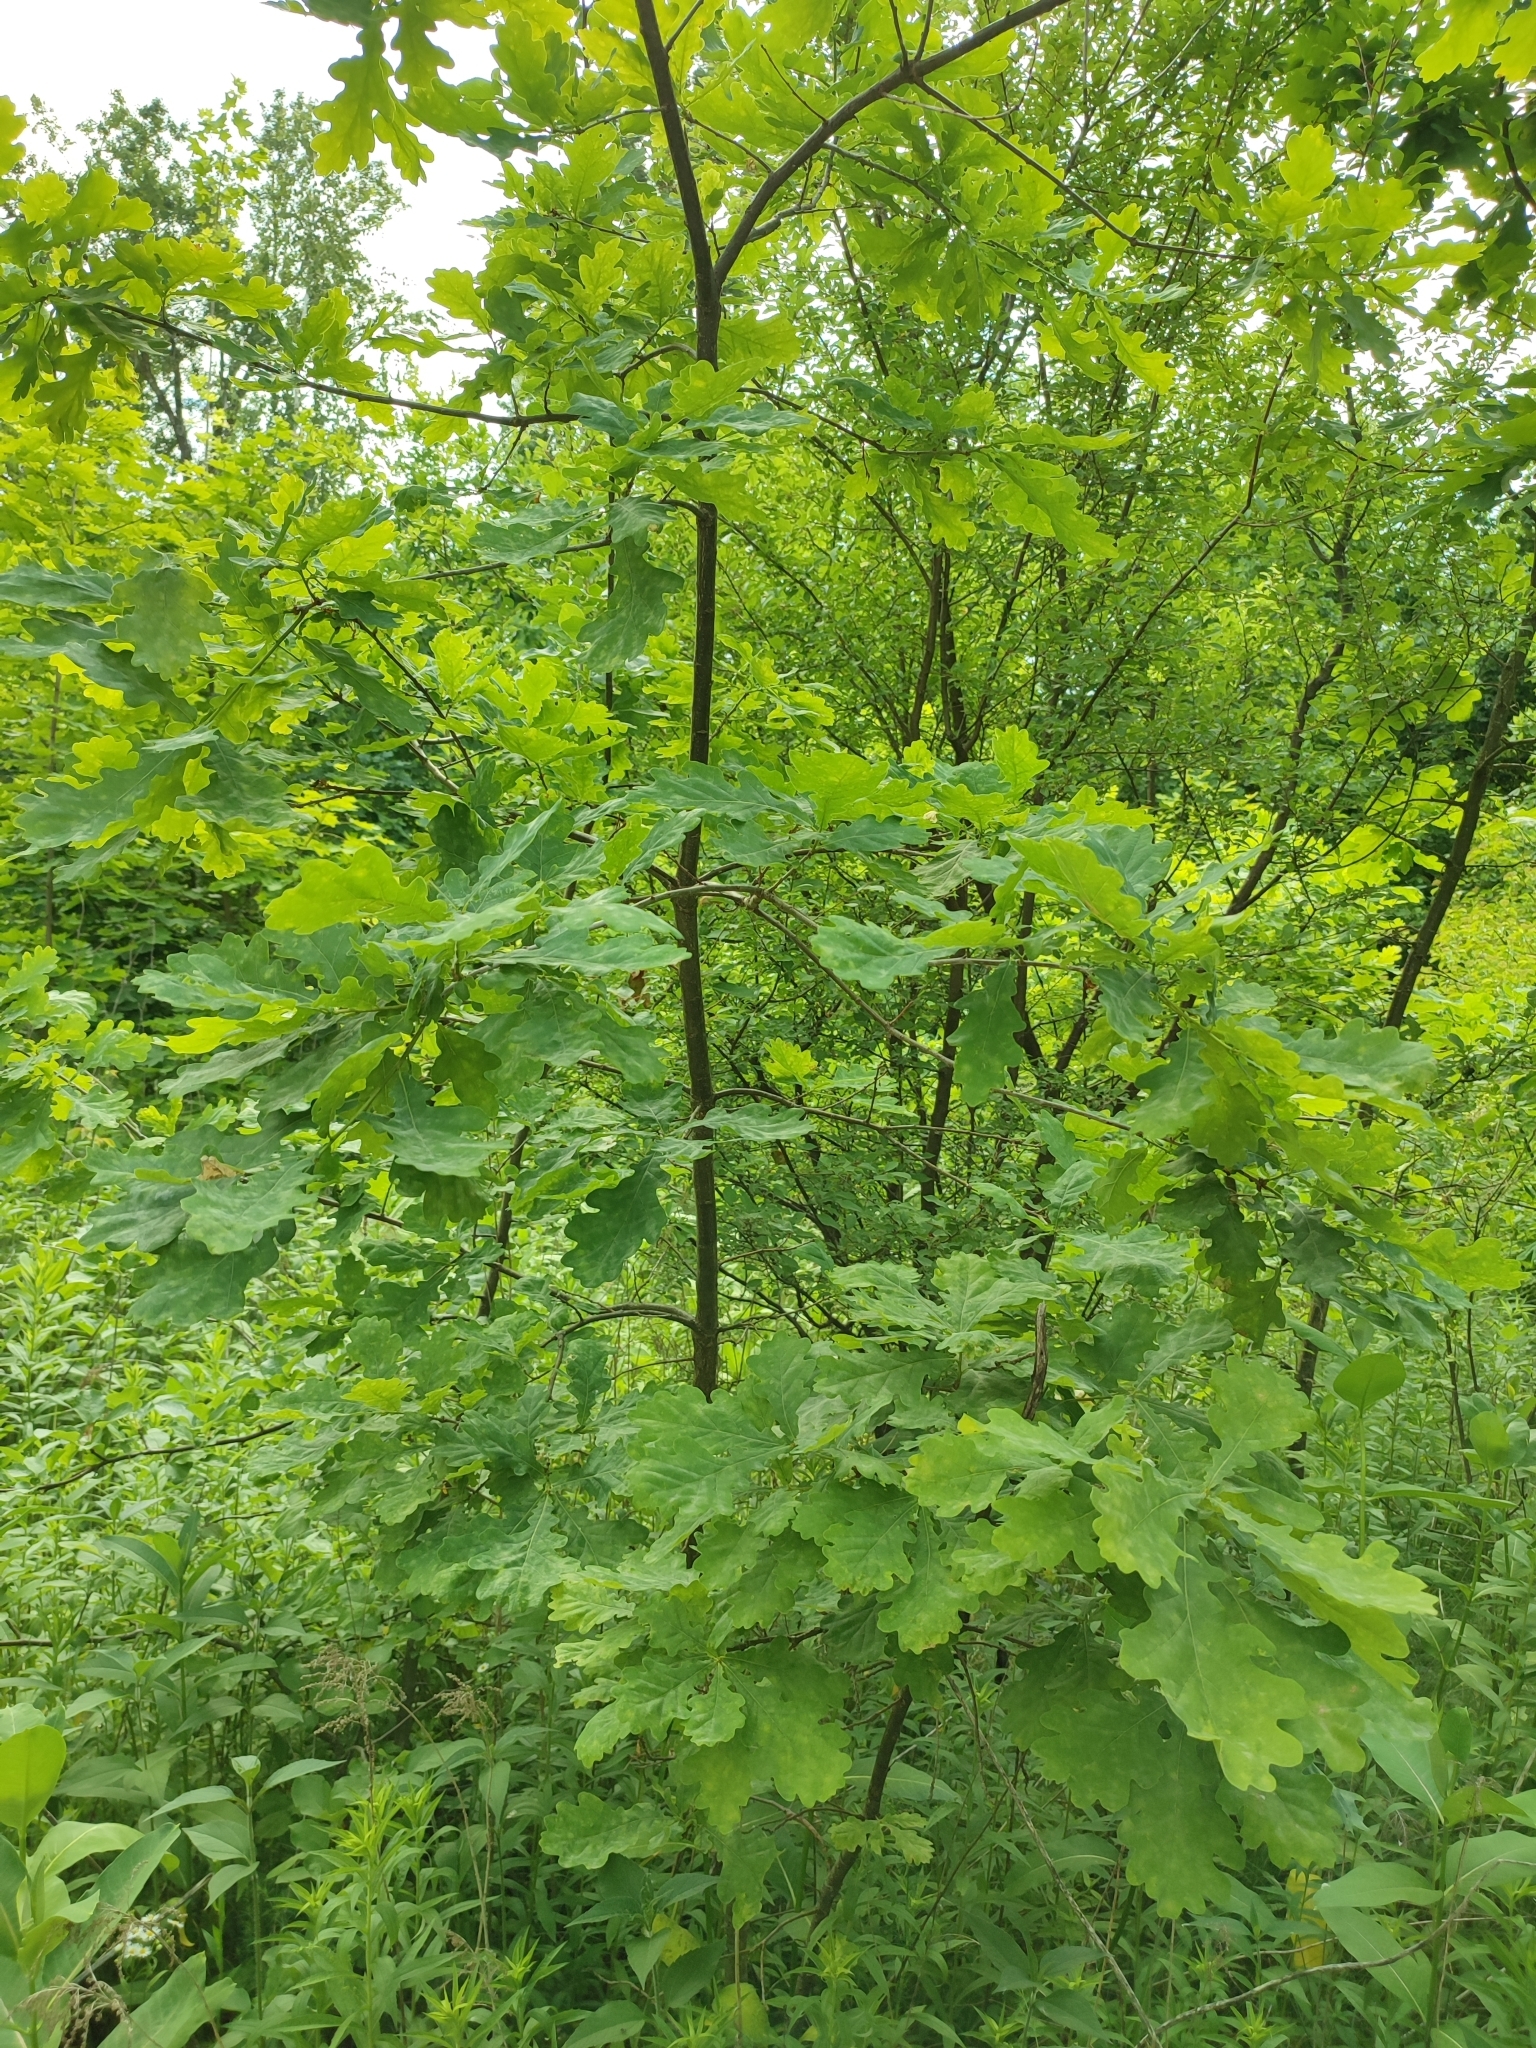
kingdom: Plantae
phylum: Tracheophyta
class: Magnoliopsida
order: Fagales
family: Fagaceae
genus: Quercus
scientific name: Quercus robur
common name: Pedunculate oak
